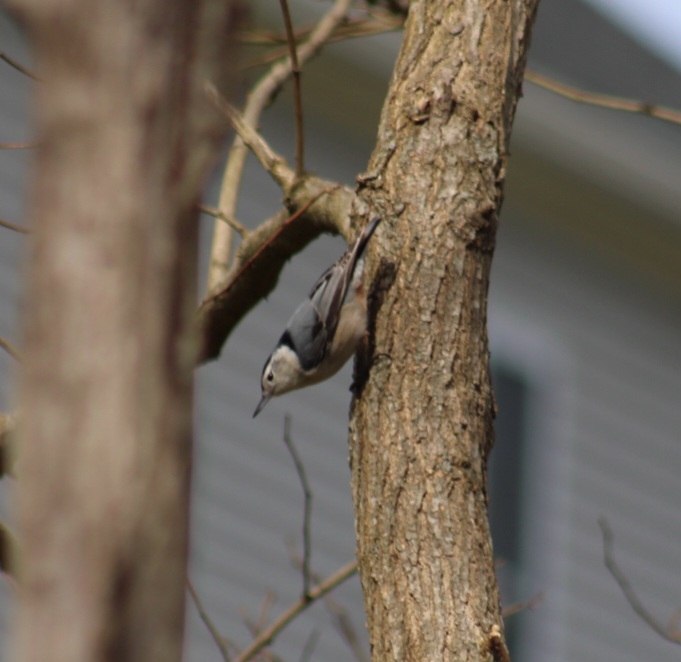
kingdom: Animalia
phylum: Chordata
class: Aves
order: Passeriformes
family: Sittidae
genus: Sitta
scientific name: Sitta carolinensis
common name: White-breasted nuthatch
